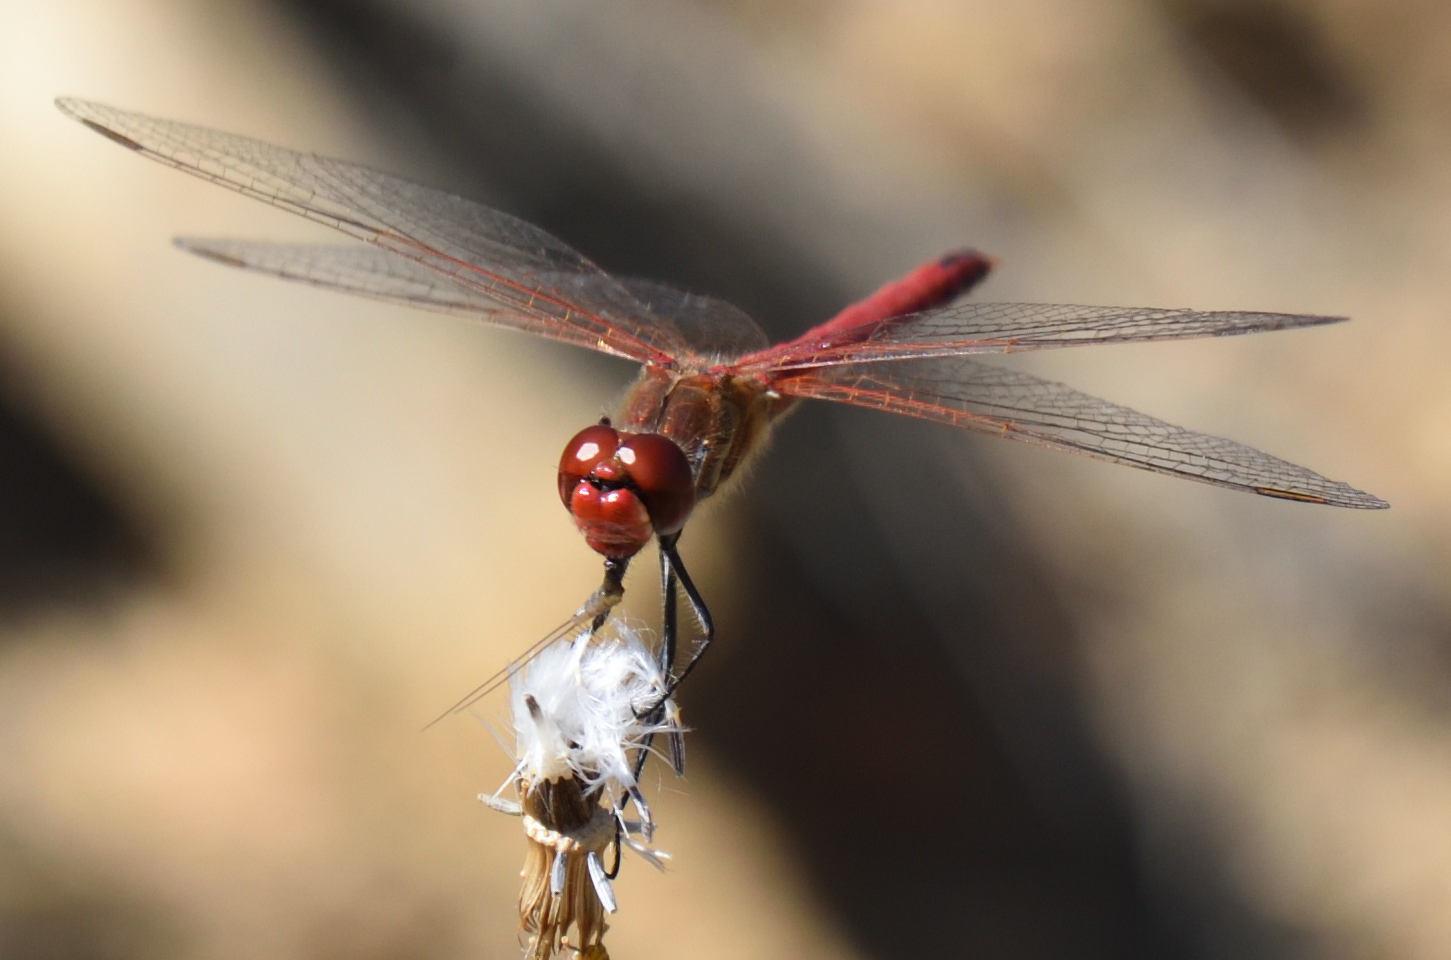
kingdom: Animalia
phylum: Arthropoda
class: Insecta
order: Odonata
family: Libellulidae
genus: Sympetrum
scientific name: Sympetrum fonscolombii
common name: Red-veined darter
